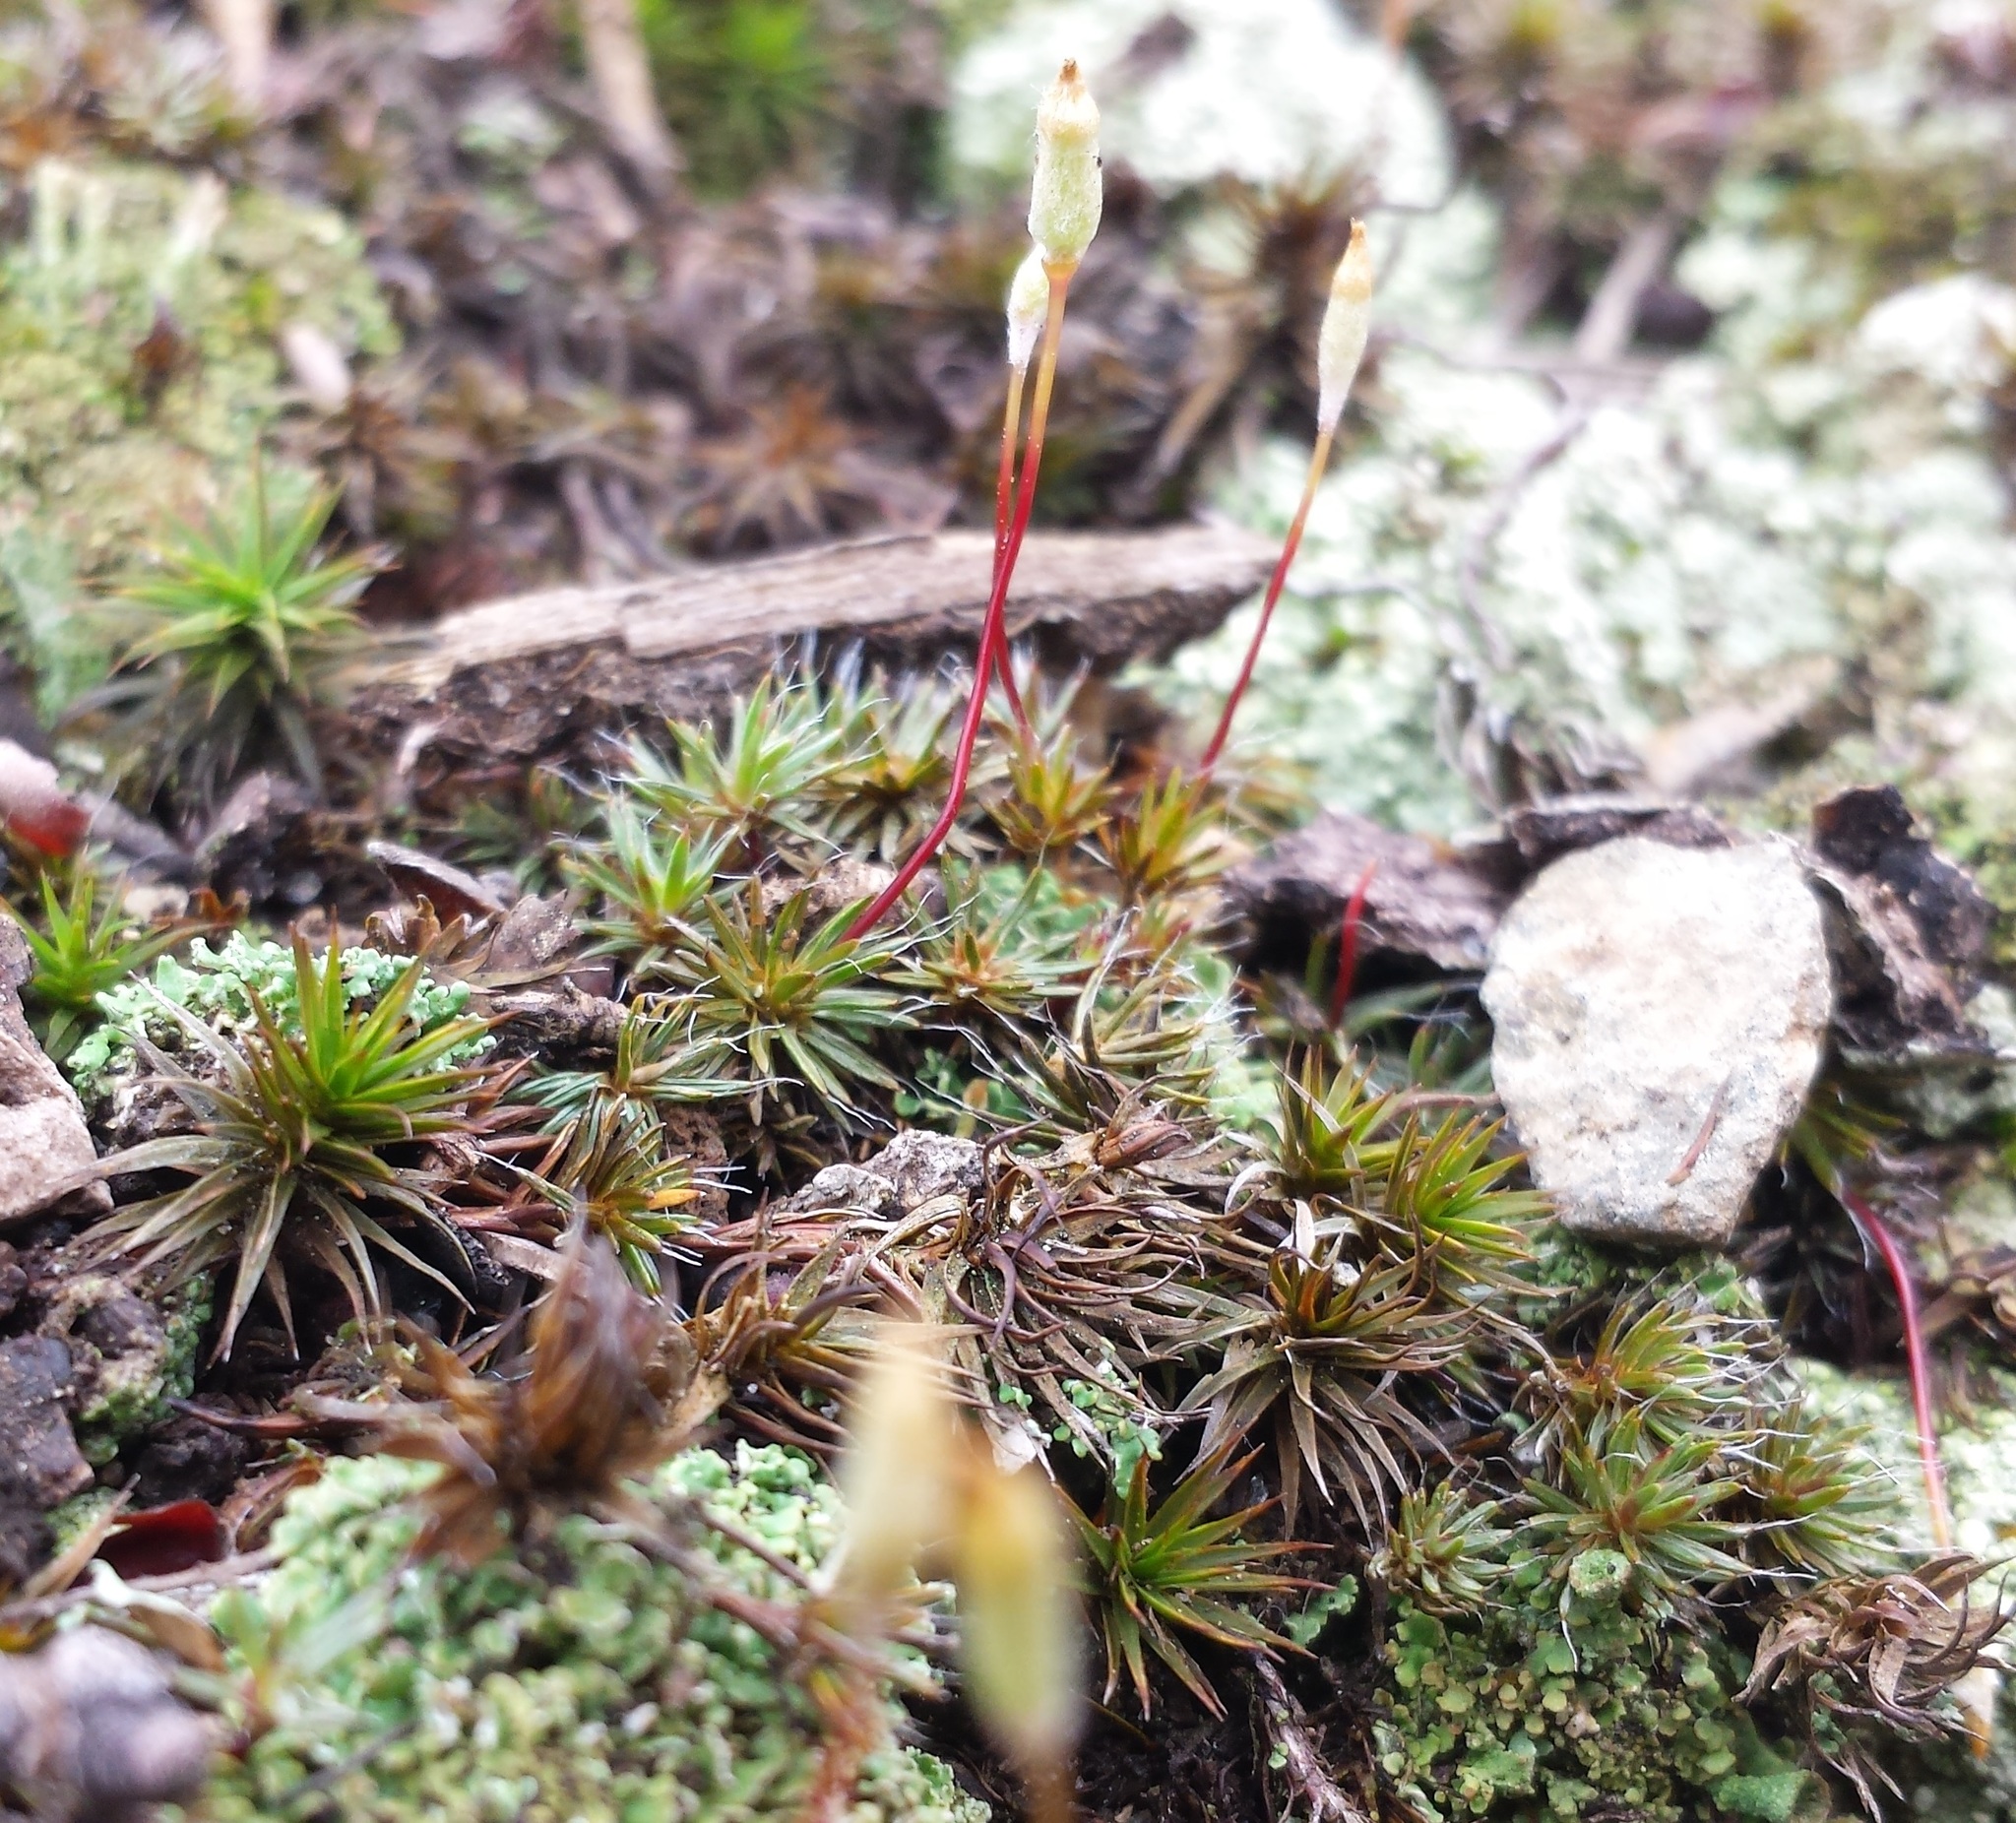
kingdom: Plantae
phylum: Bryophyta
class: Polytrichopsida
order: Polytrichales
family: Polytrichaceae
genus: Polytrichum
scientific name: Polytrichum piliferum
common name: Bristly haircap
